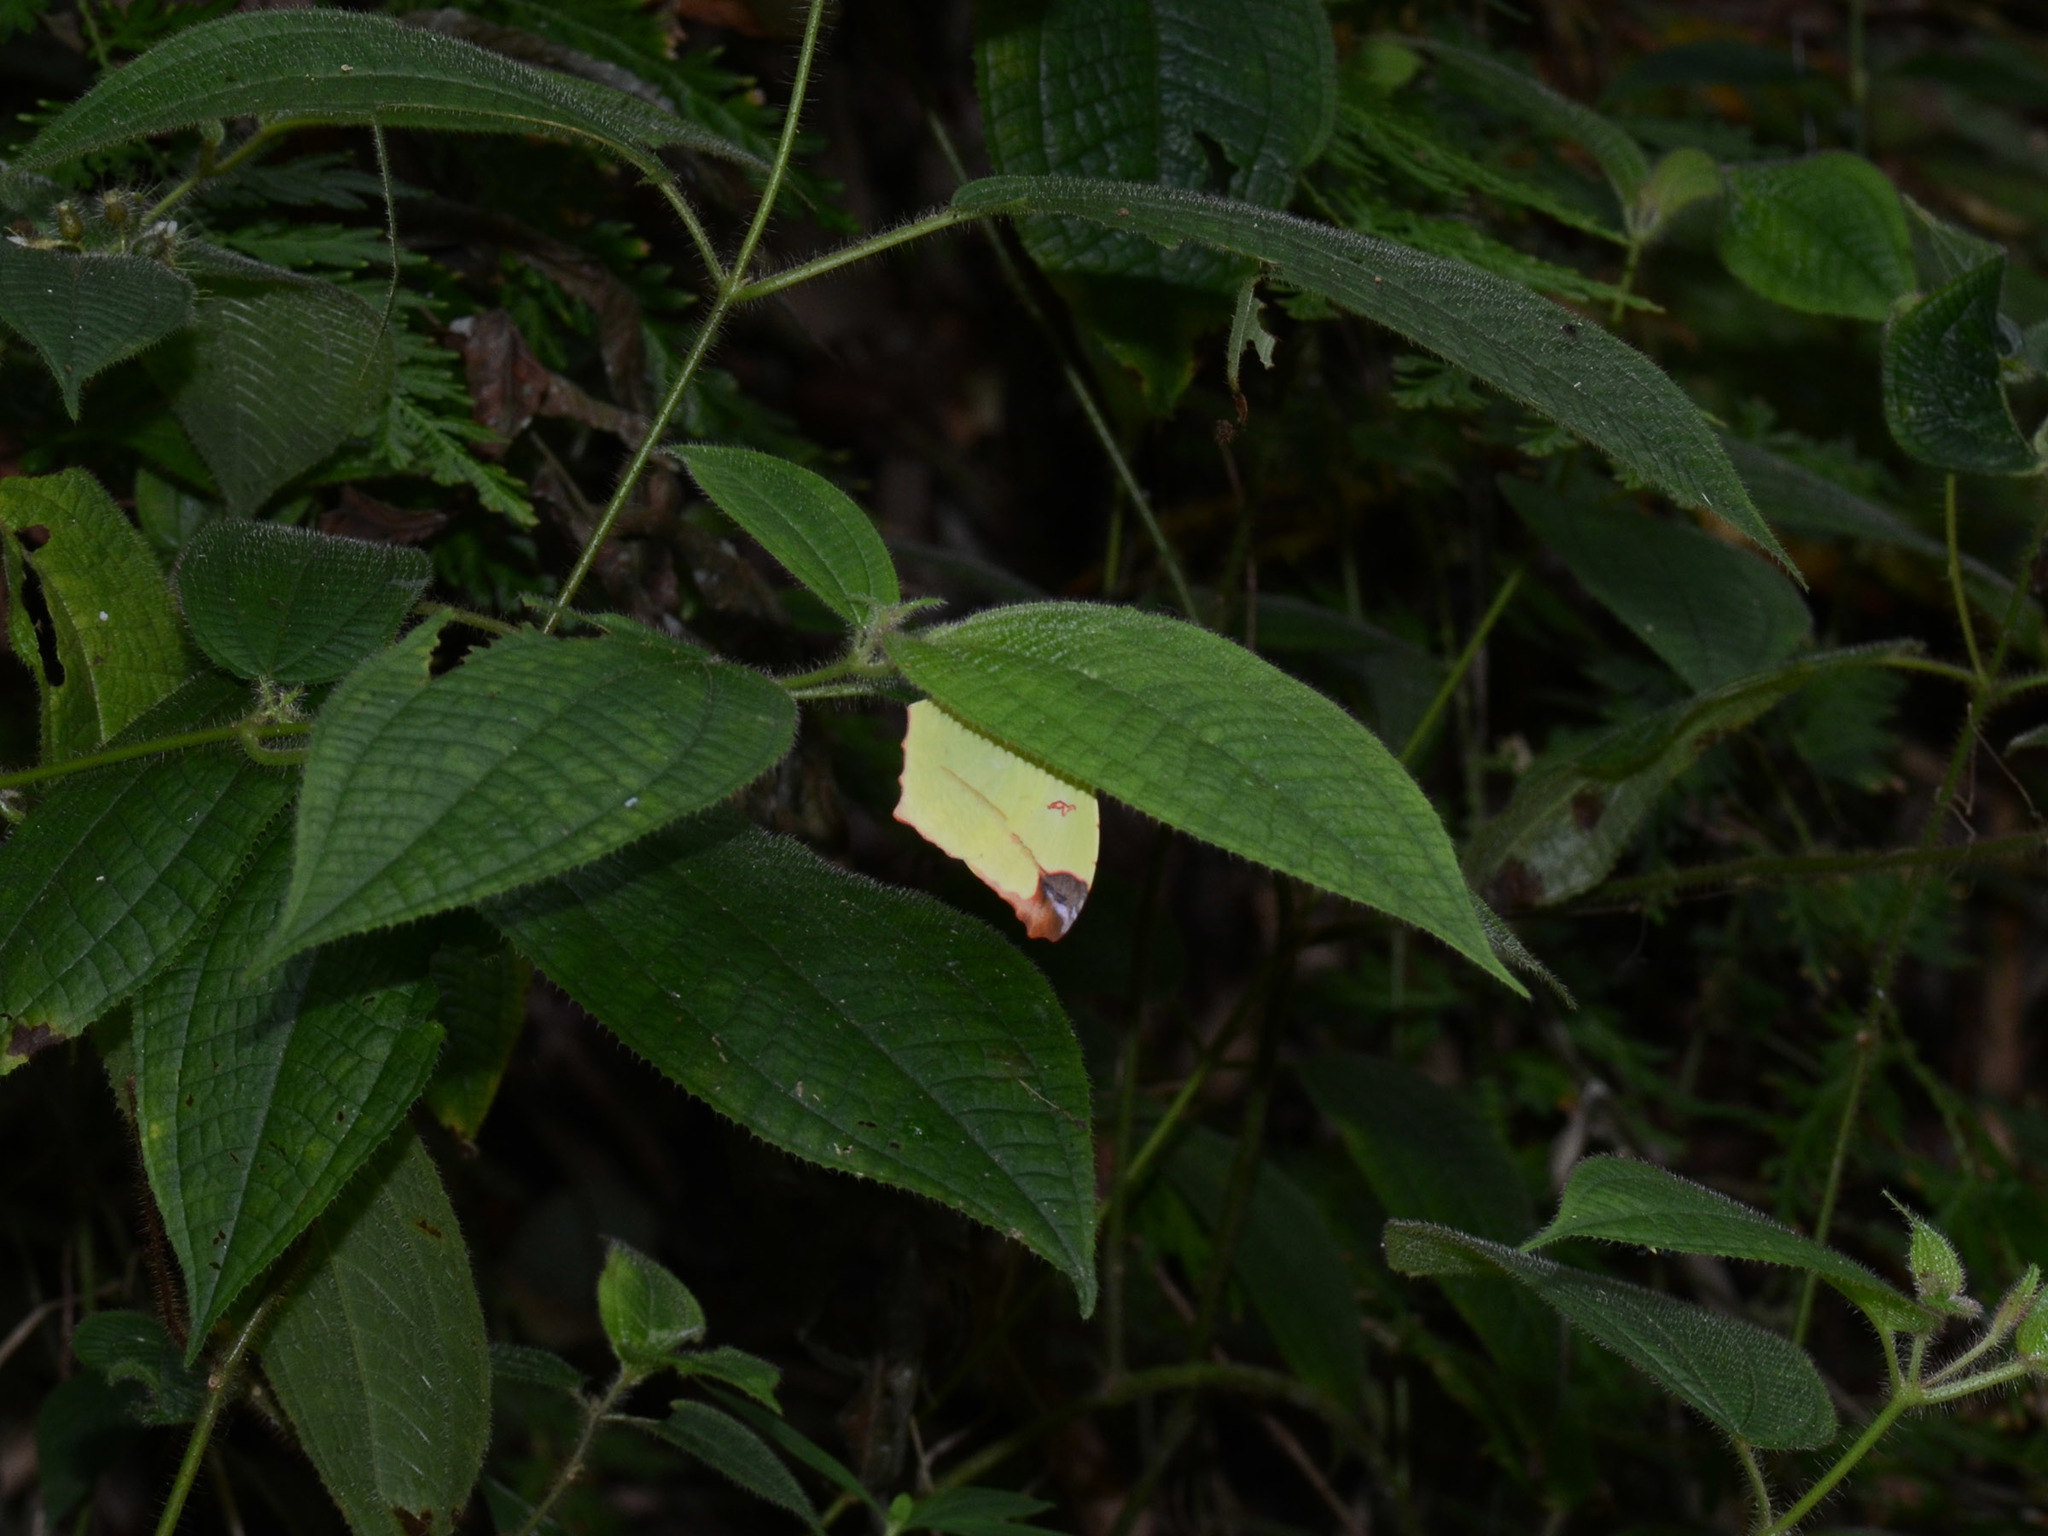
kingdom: Animalia
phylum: Arthropoda
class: Insecta
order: Lepidoptera
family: Pieridae
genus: Dercas
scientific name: Dercas gobrias
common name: Angled sulfur
